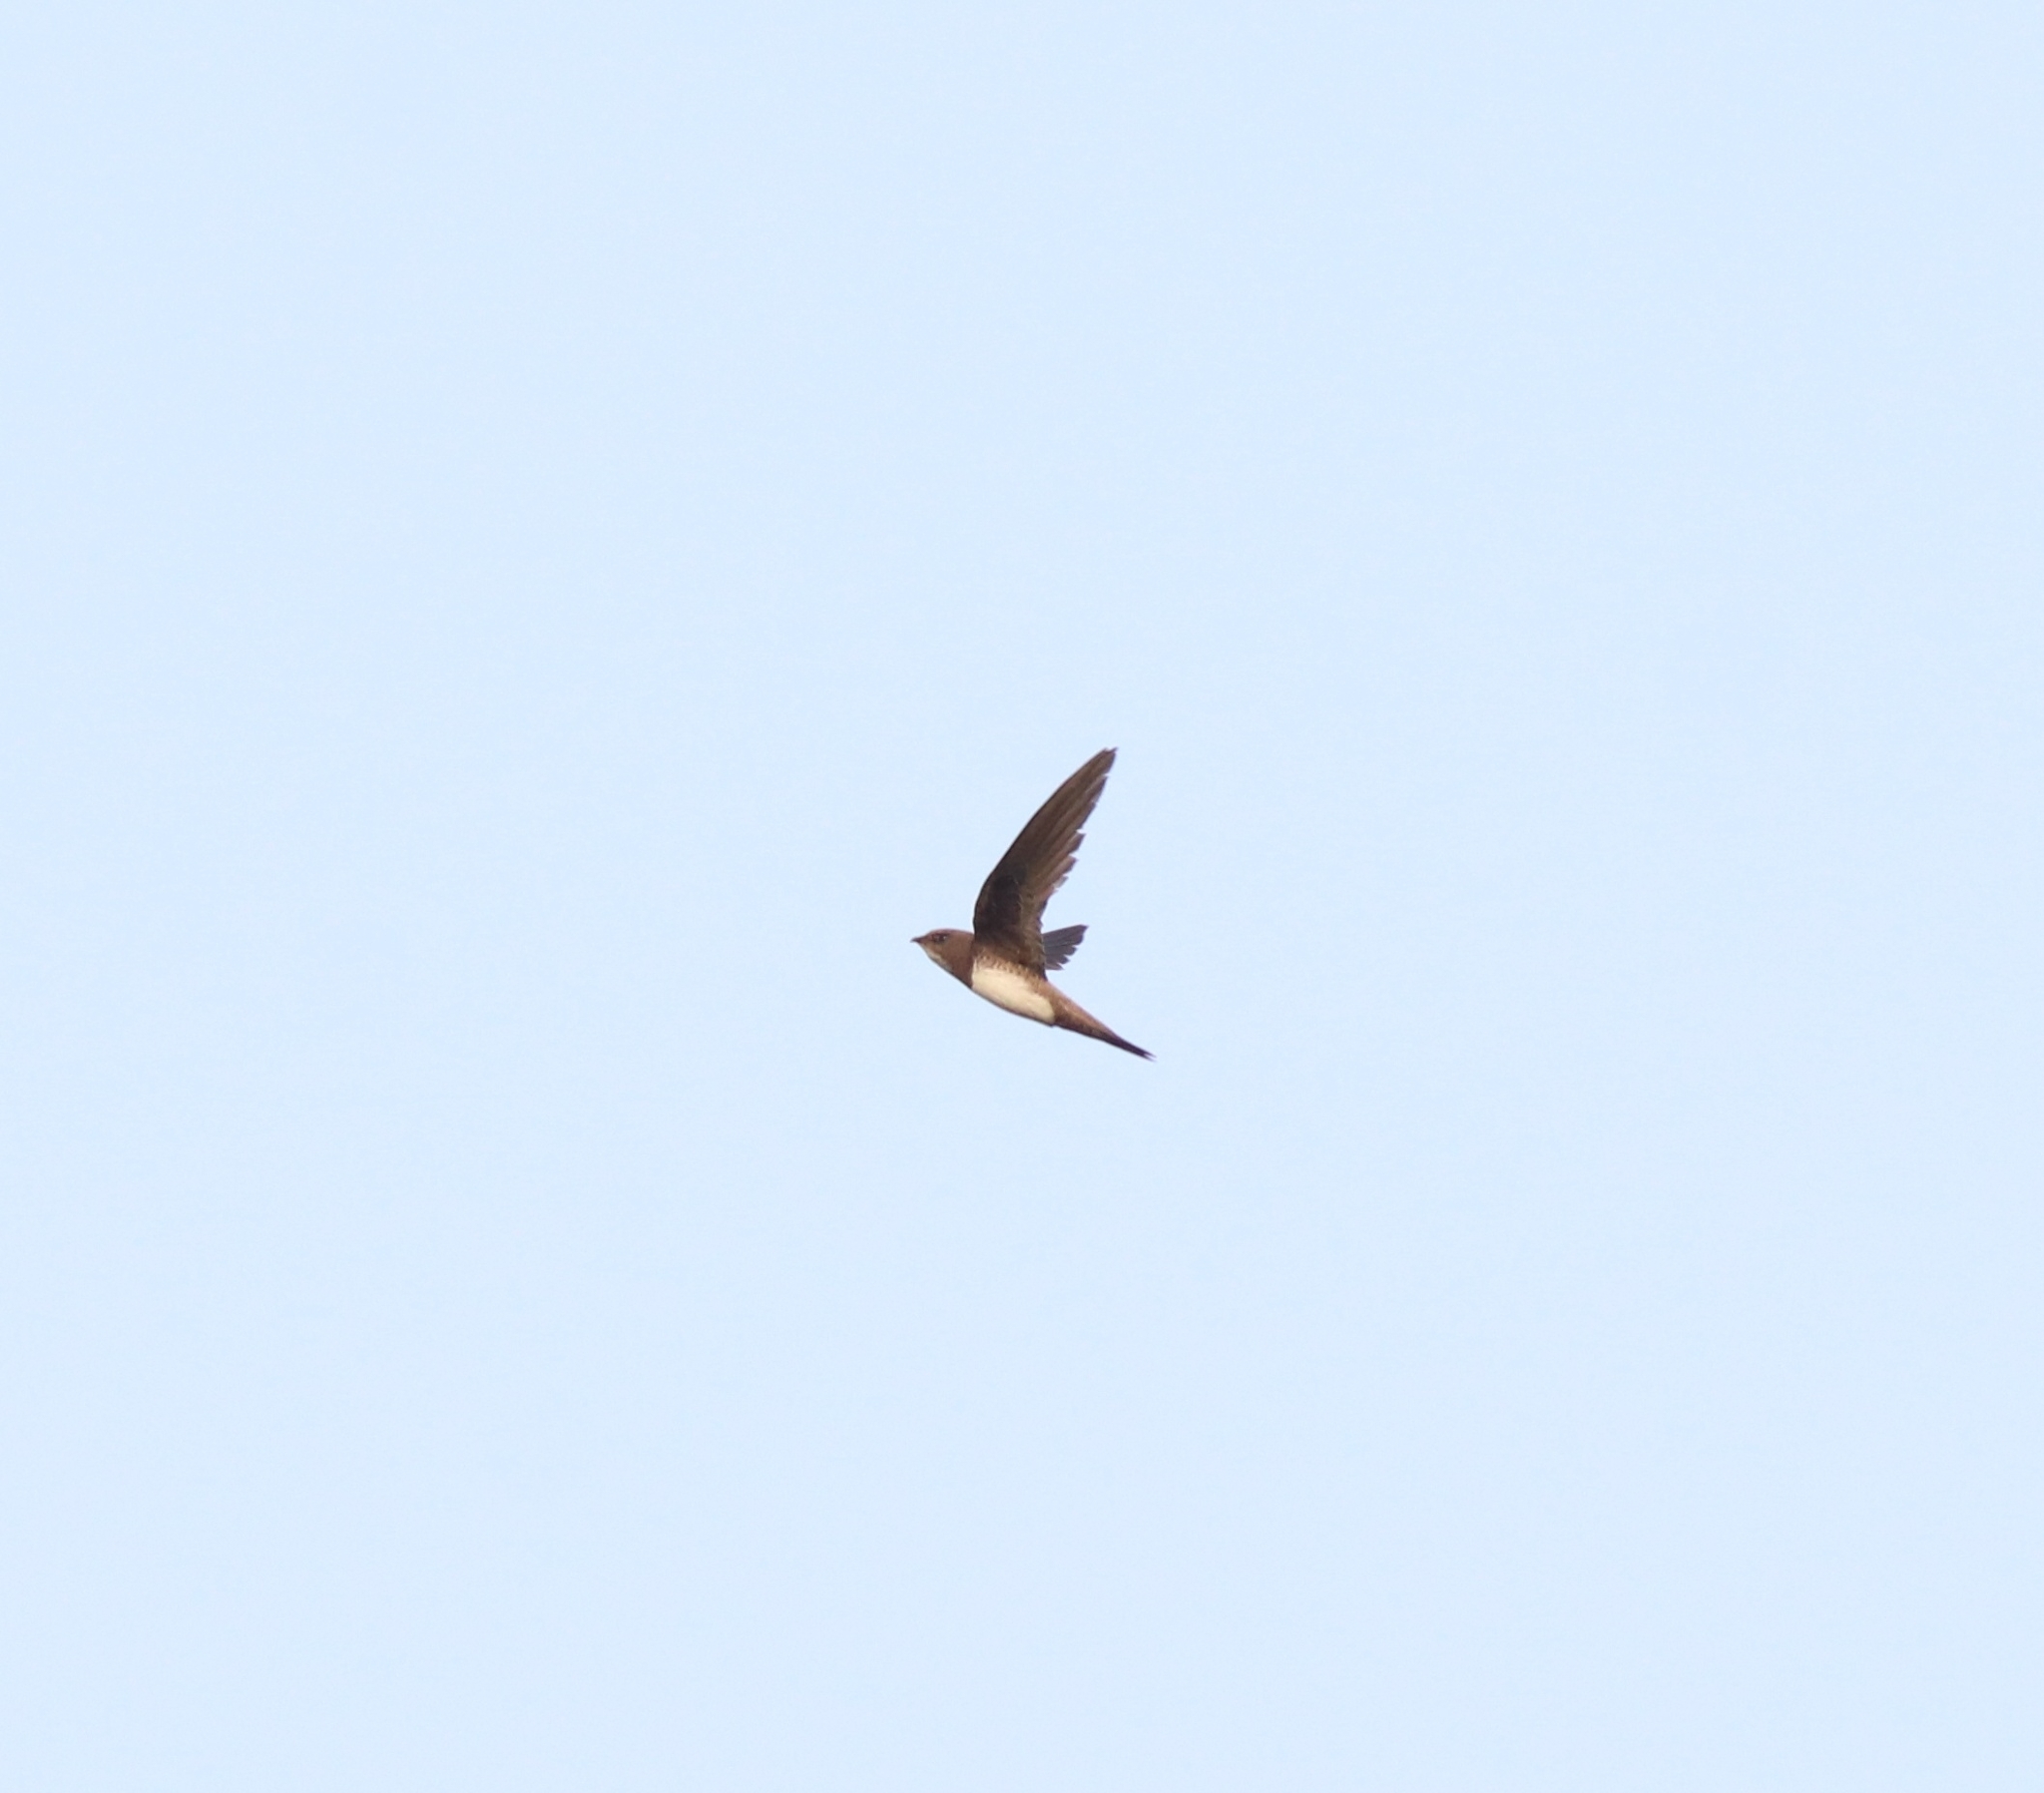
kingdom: Animalia
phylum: Chordata
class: Aves
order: Apodiformes
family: Apodidae
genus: Tachymarptis
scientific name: Tachymarptis melba
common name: Alpine swift
